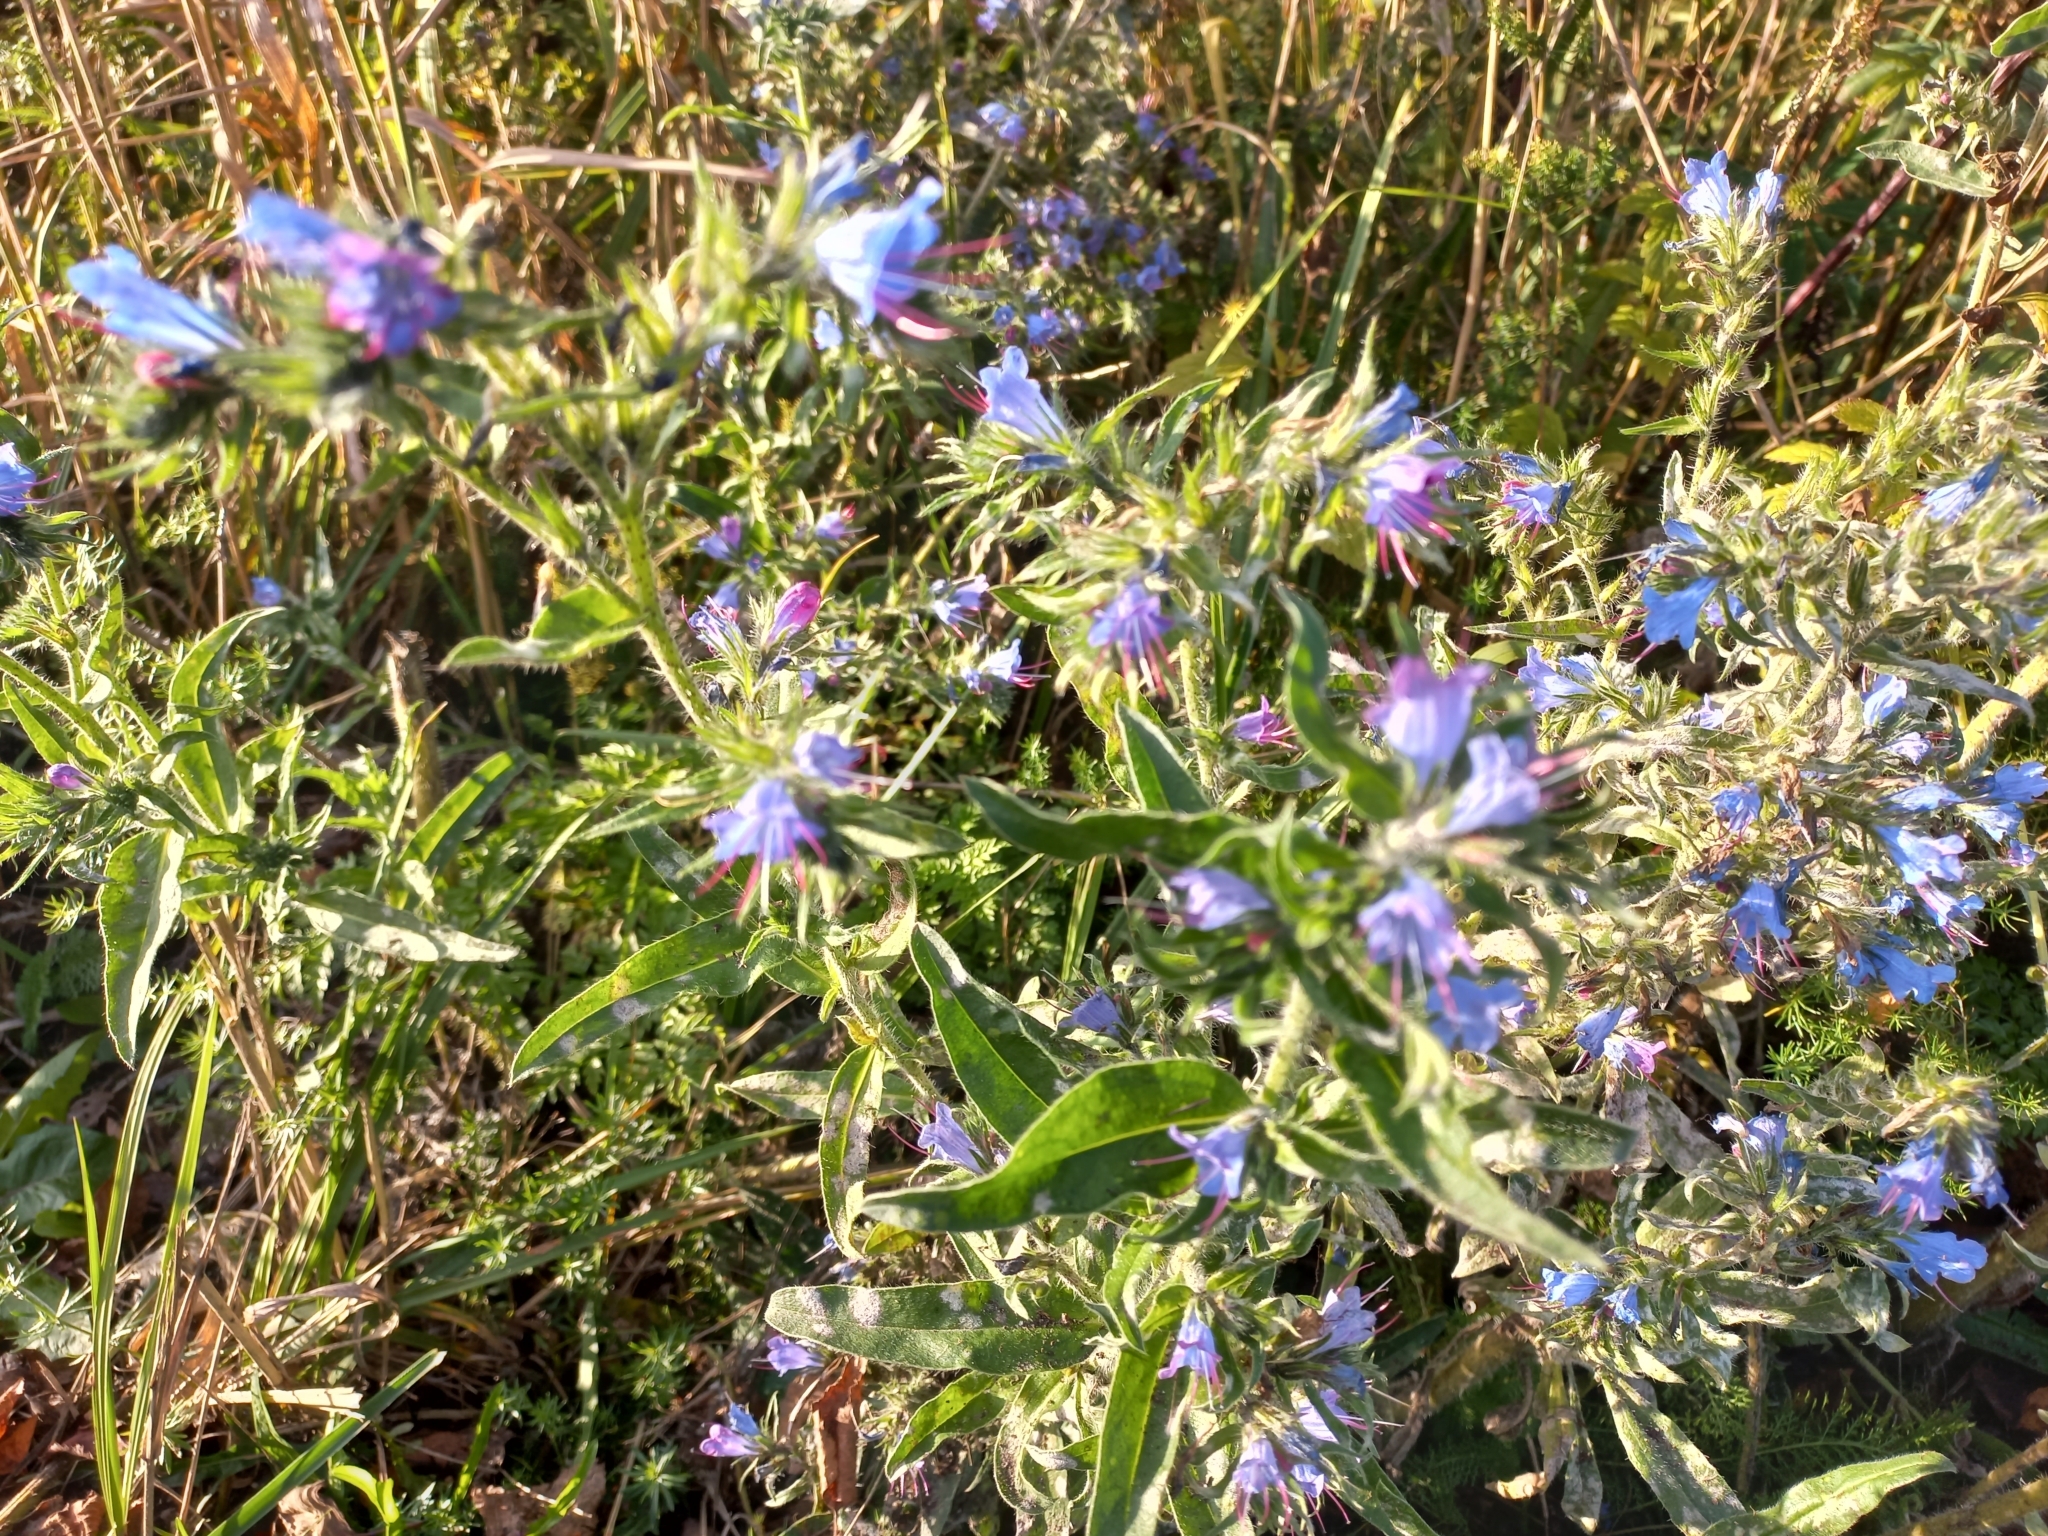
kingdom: Plantae
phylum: Tracheophyta
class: Magnoliopsida
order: Boraginales
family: Boraginaceae
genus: Echium
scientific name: Echium vulgare
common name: Common viper's bugloss
